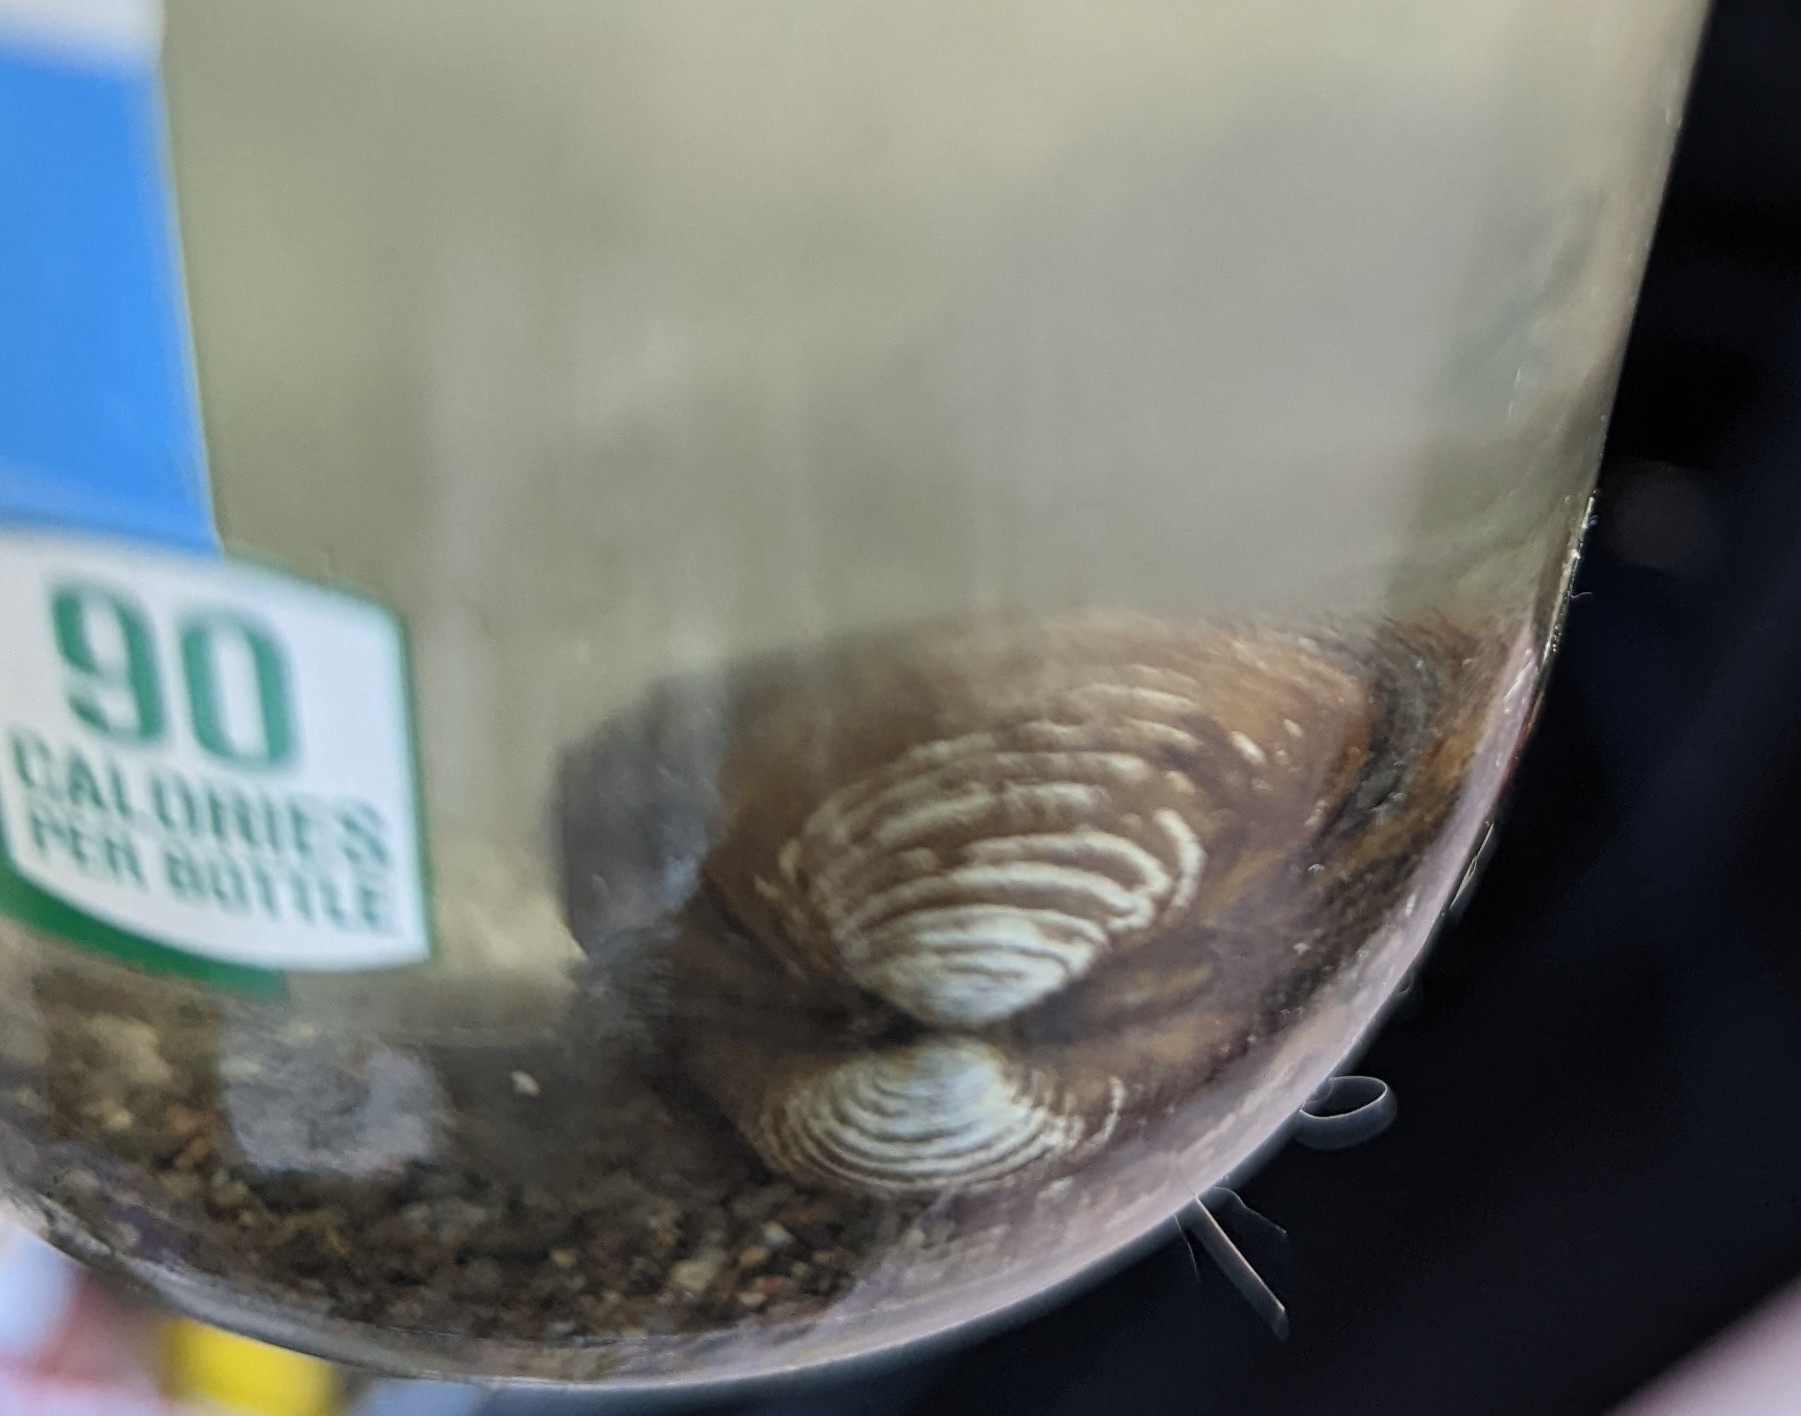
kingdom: Animalia
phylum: Mollusca
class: Bivalvia
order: Venerida
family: Cyrenidae
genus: Corbicula
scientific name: Corbicula fluminea
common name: Asian clam
